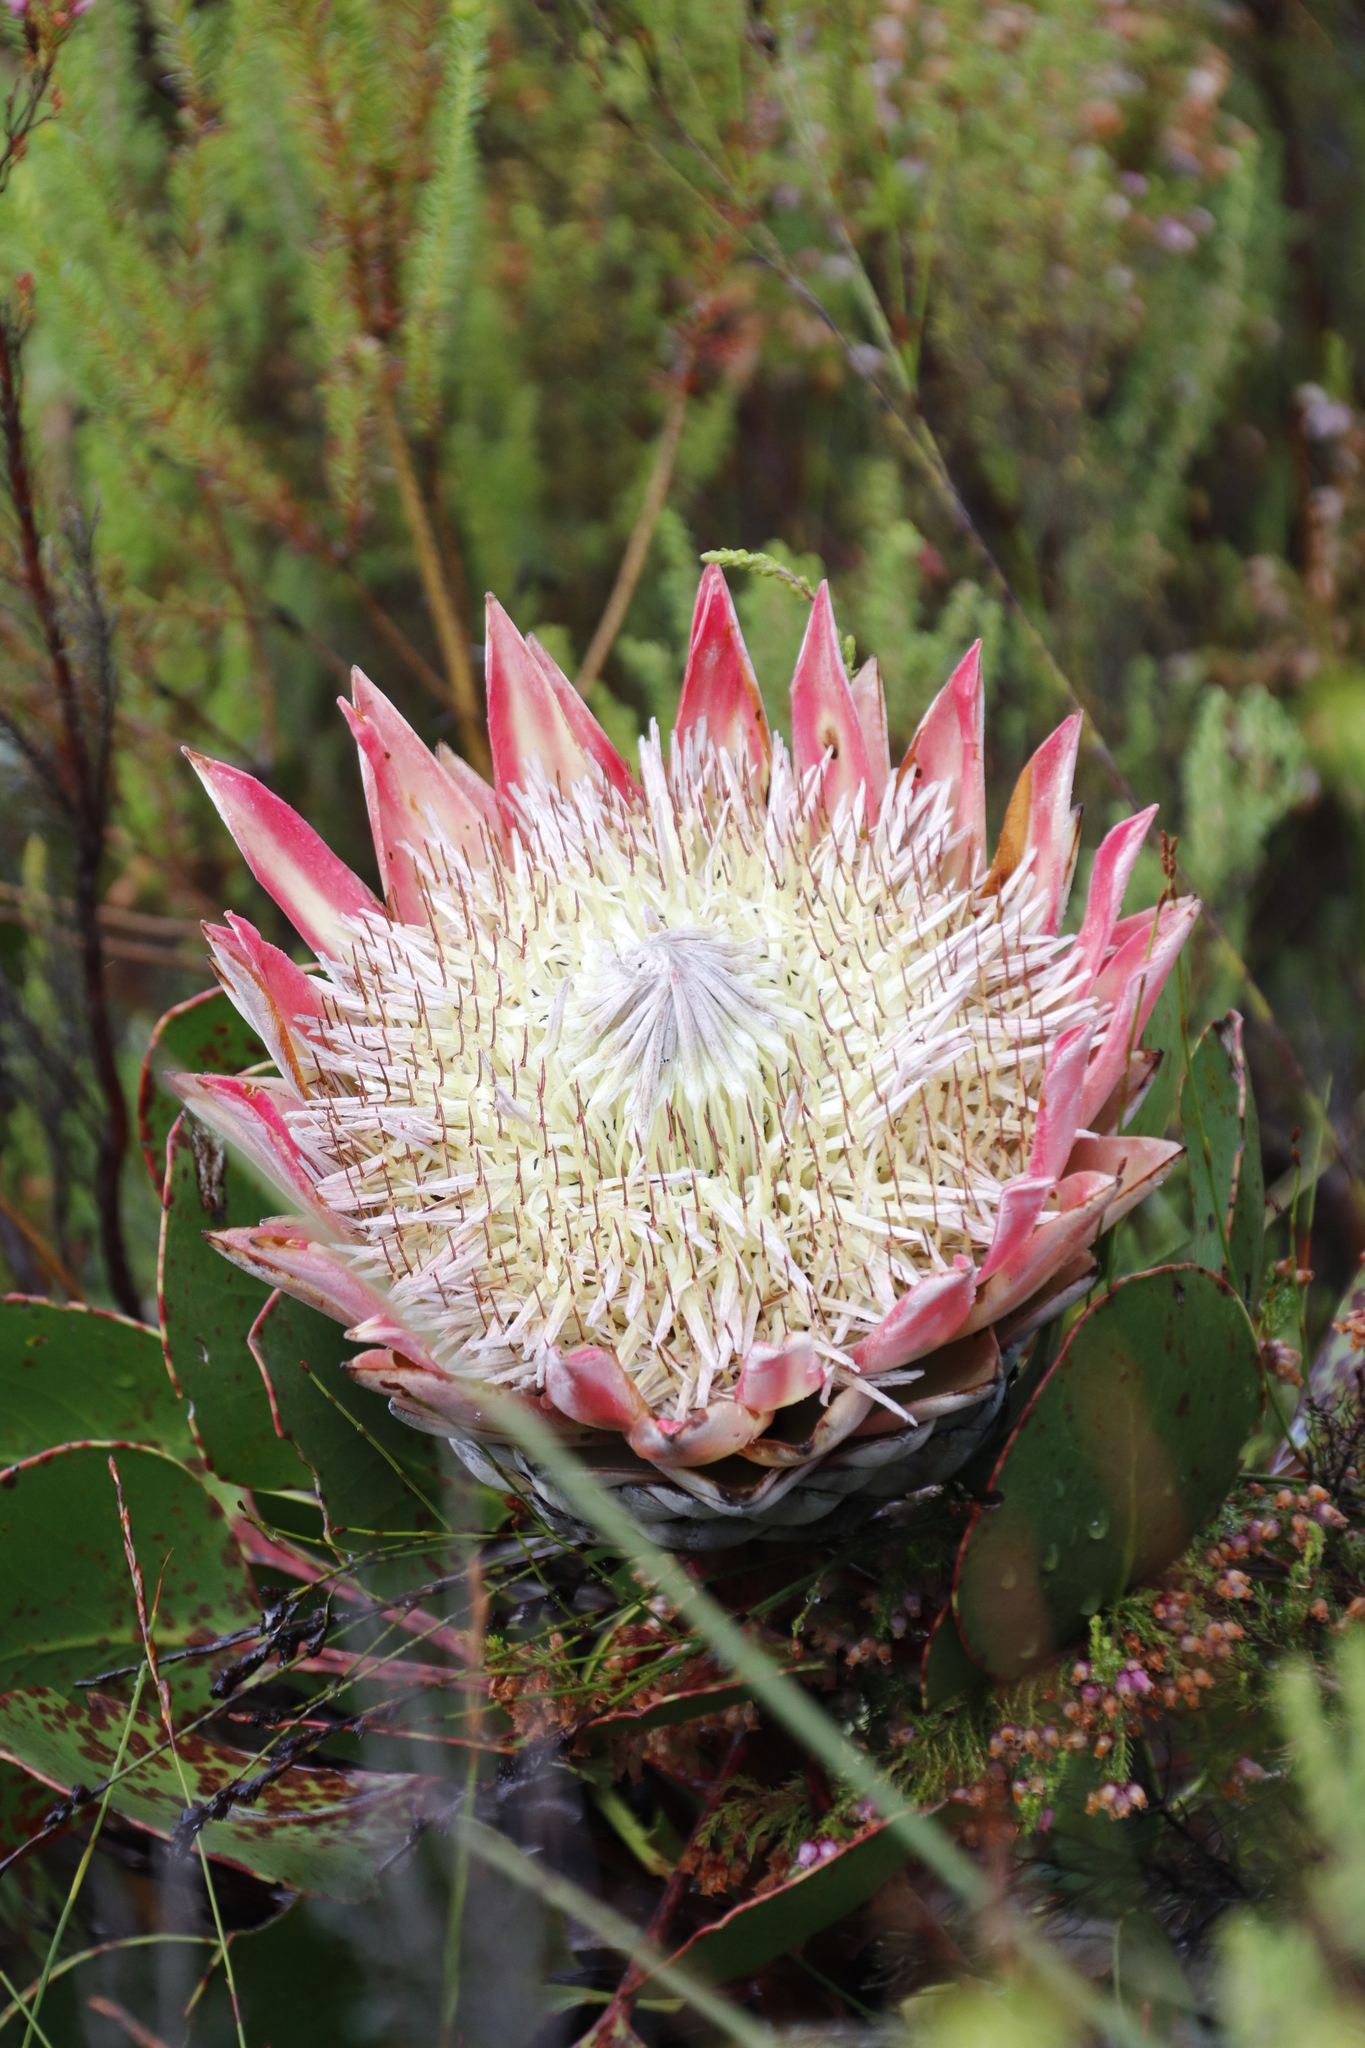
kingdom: Plantae
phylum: Tracheophyta
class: Magnoliopsida
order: Proteales
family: Proteaceae
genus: Protea
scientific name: Protea cynaroides
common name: King protea
